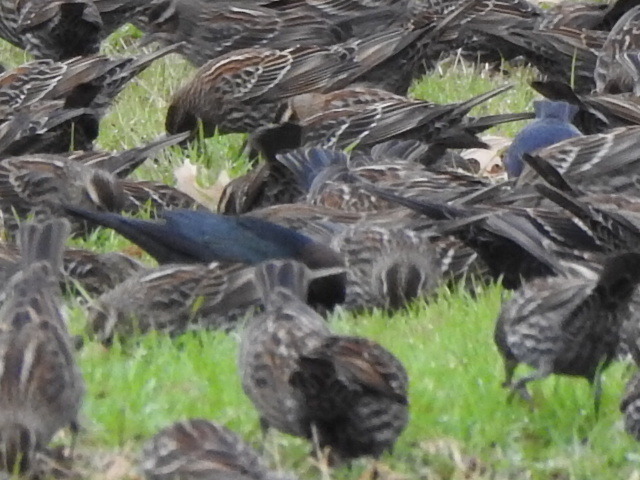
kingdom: Animalia
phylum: Chordata
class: Aves
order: Passeriformes
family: Icteridae
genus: Molothrus
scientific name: Molothrus ater
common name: Brown-headed cowbird
